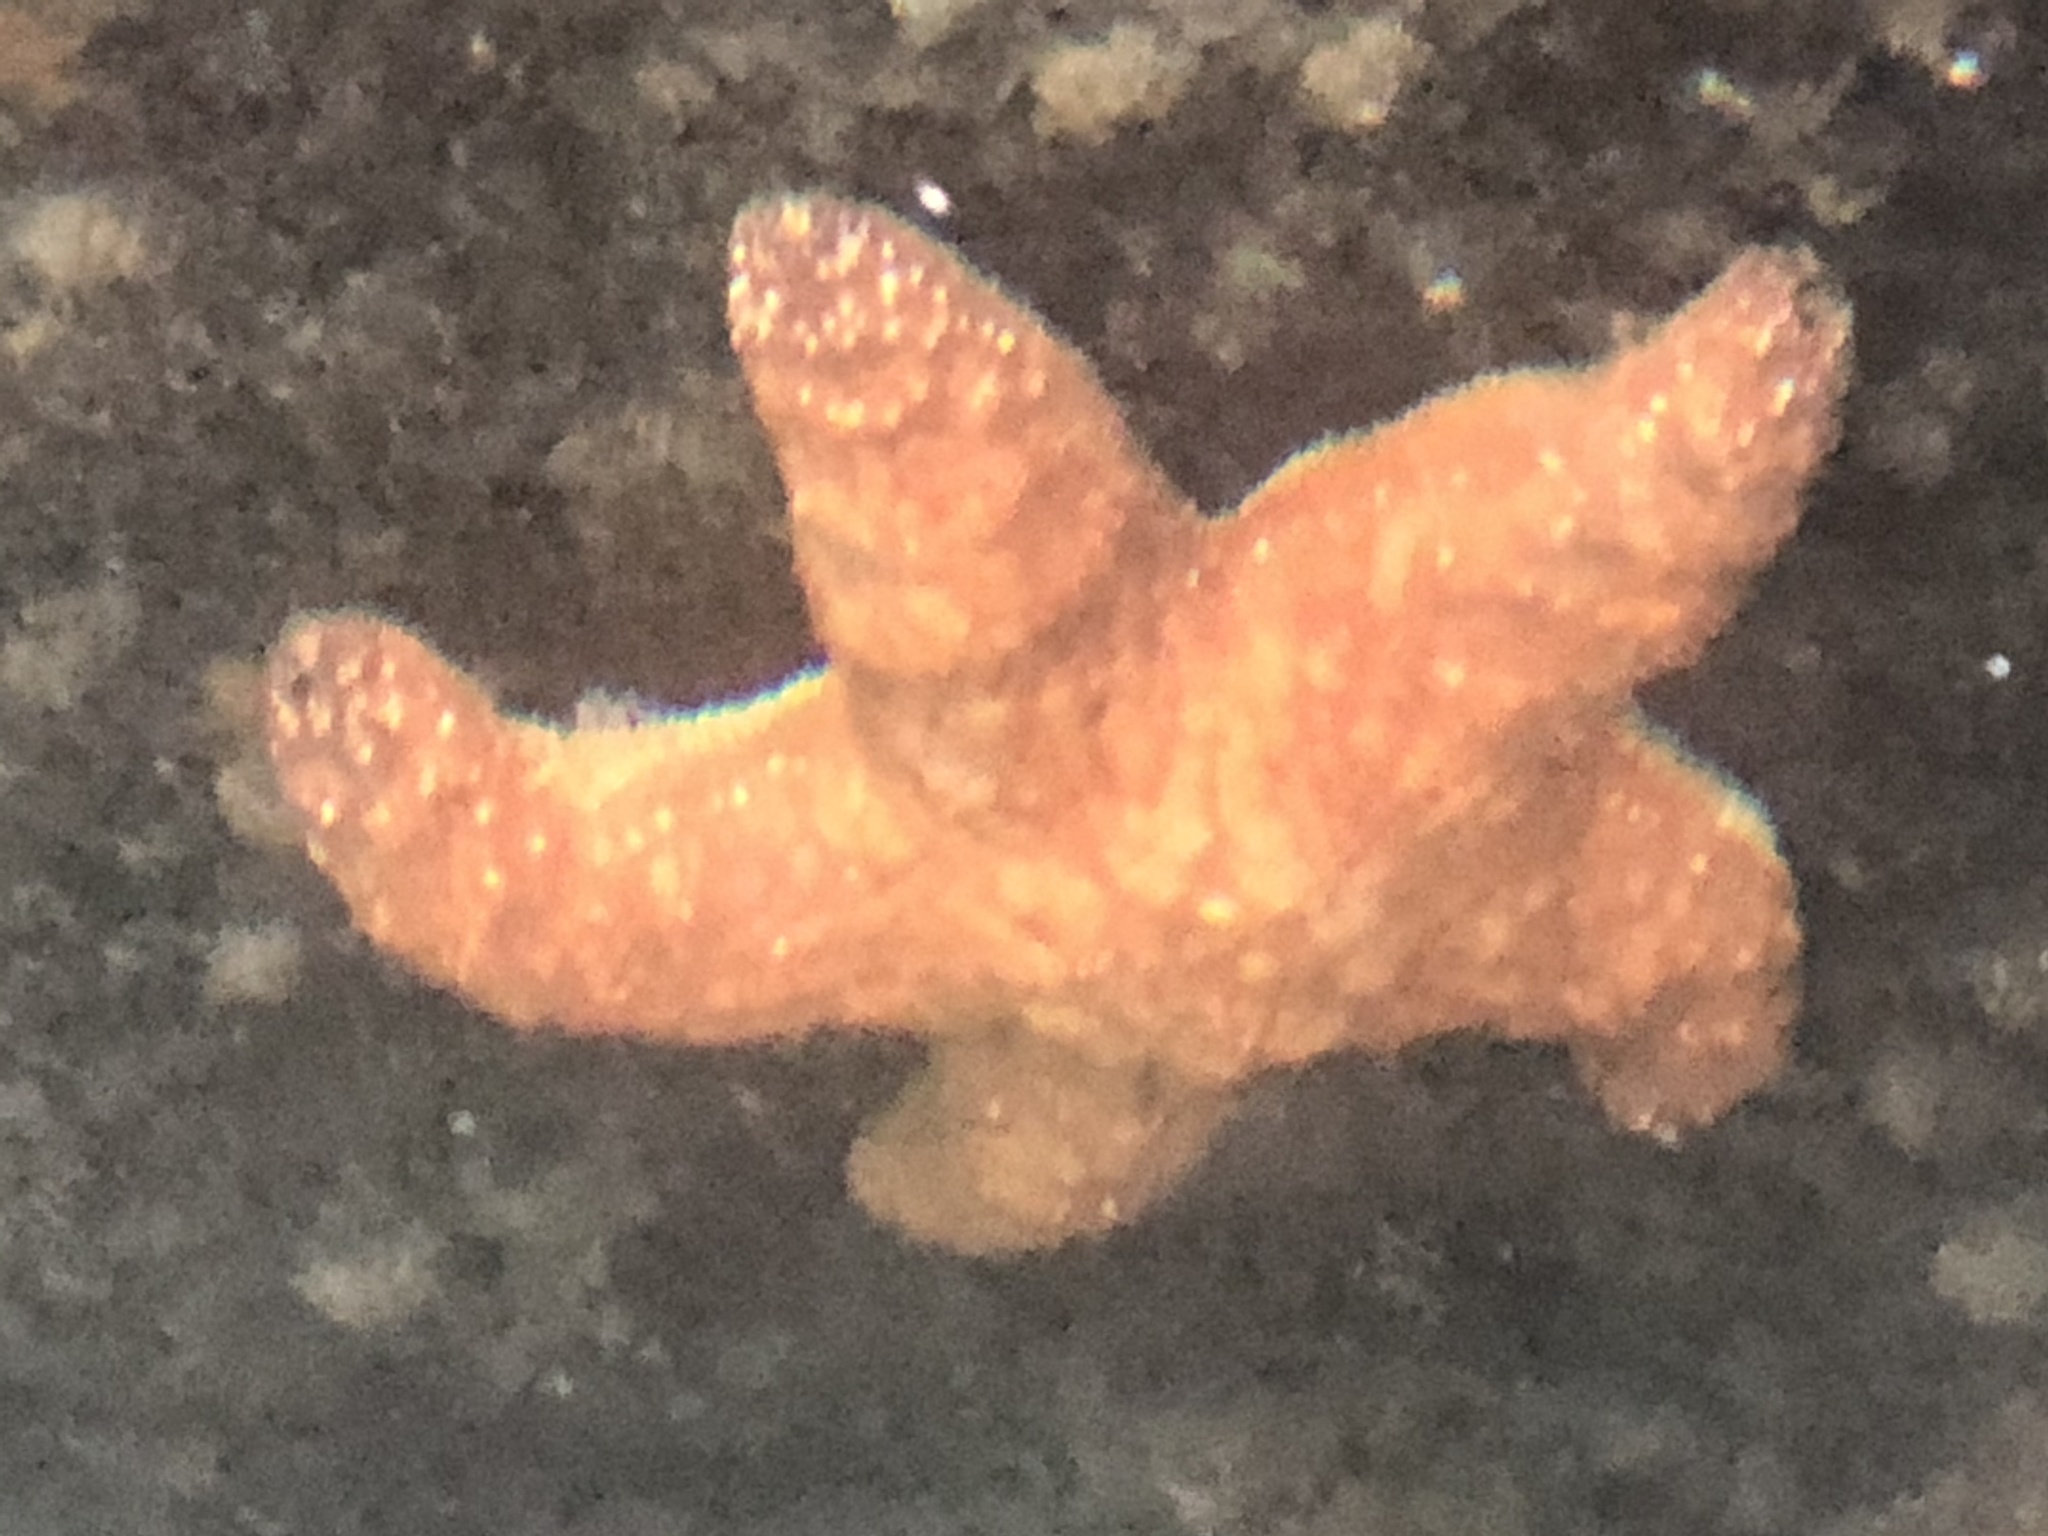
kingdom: Animalia
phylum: Echinodermata
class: Asteroidea
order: Forcipulatida
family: Asteriidae
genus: Pisaster
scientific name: Pisaster ochraceus
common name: Ochre stars
